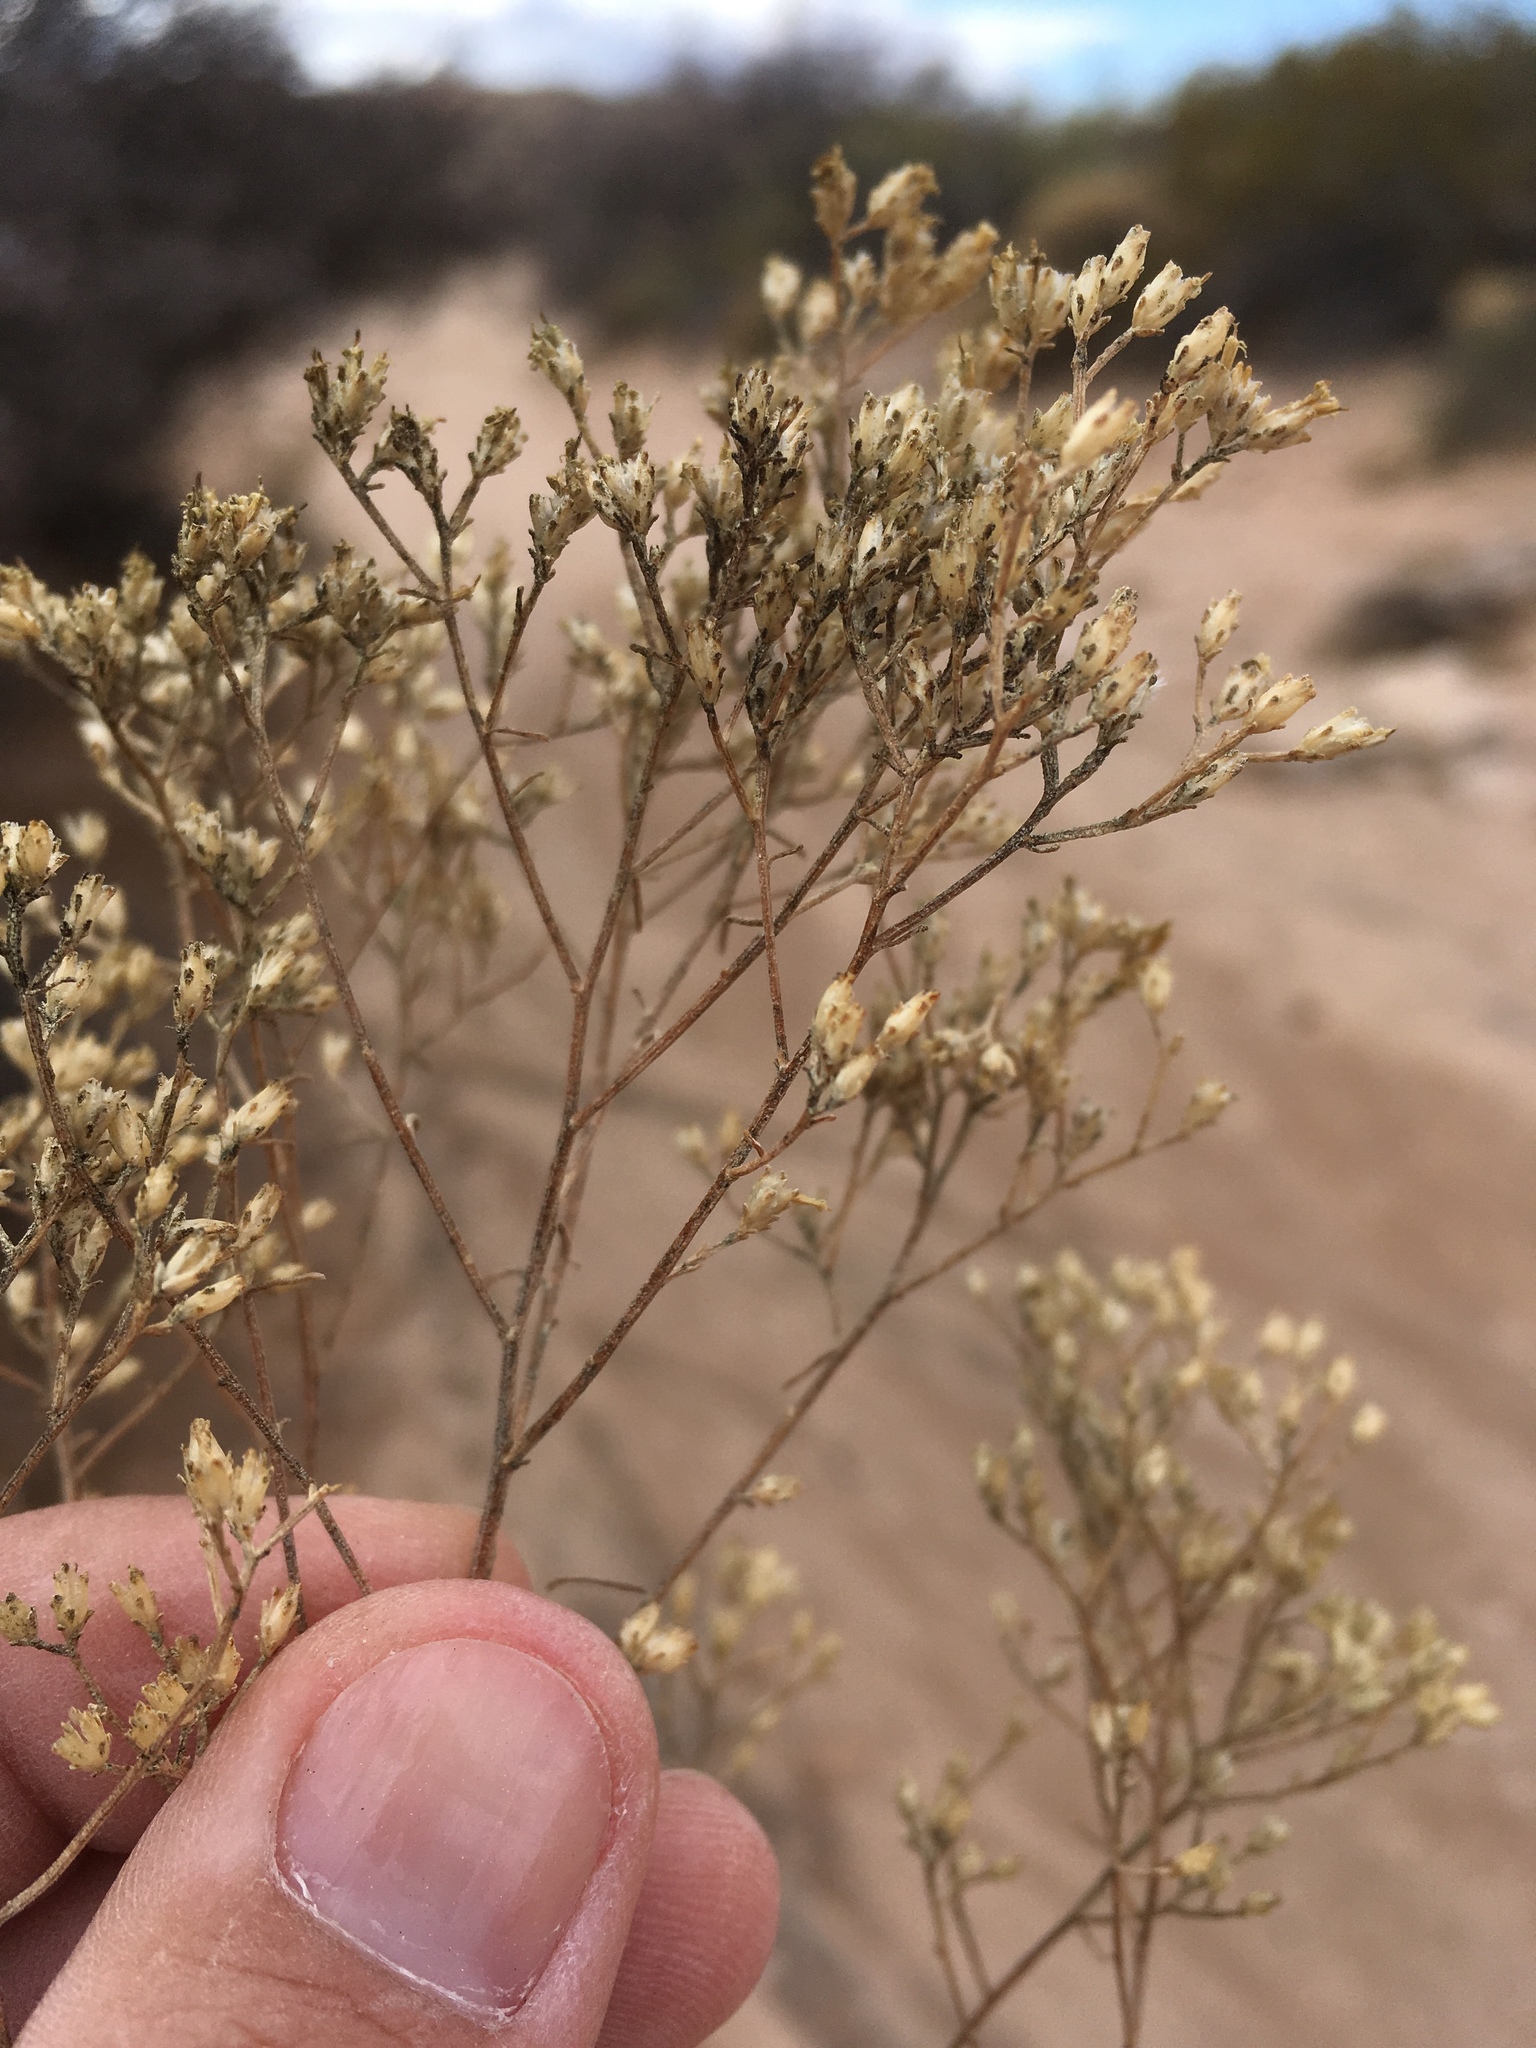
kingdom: Plantae
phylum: Tracheophyta
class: Magnoliopsida
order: Asterales
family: Asteraceae
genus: Gutierrezia
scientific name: Gutierrezia sarothrae
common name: Broom snakeweed
